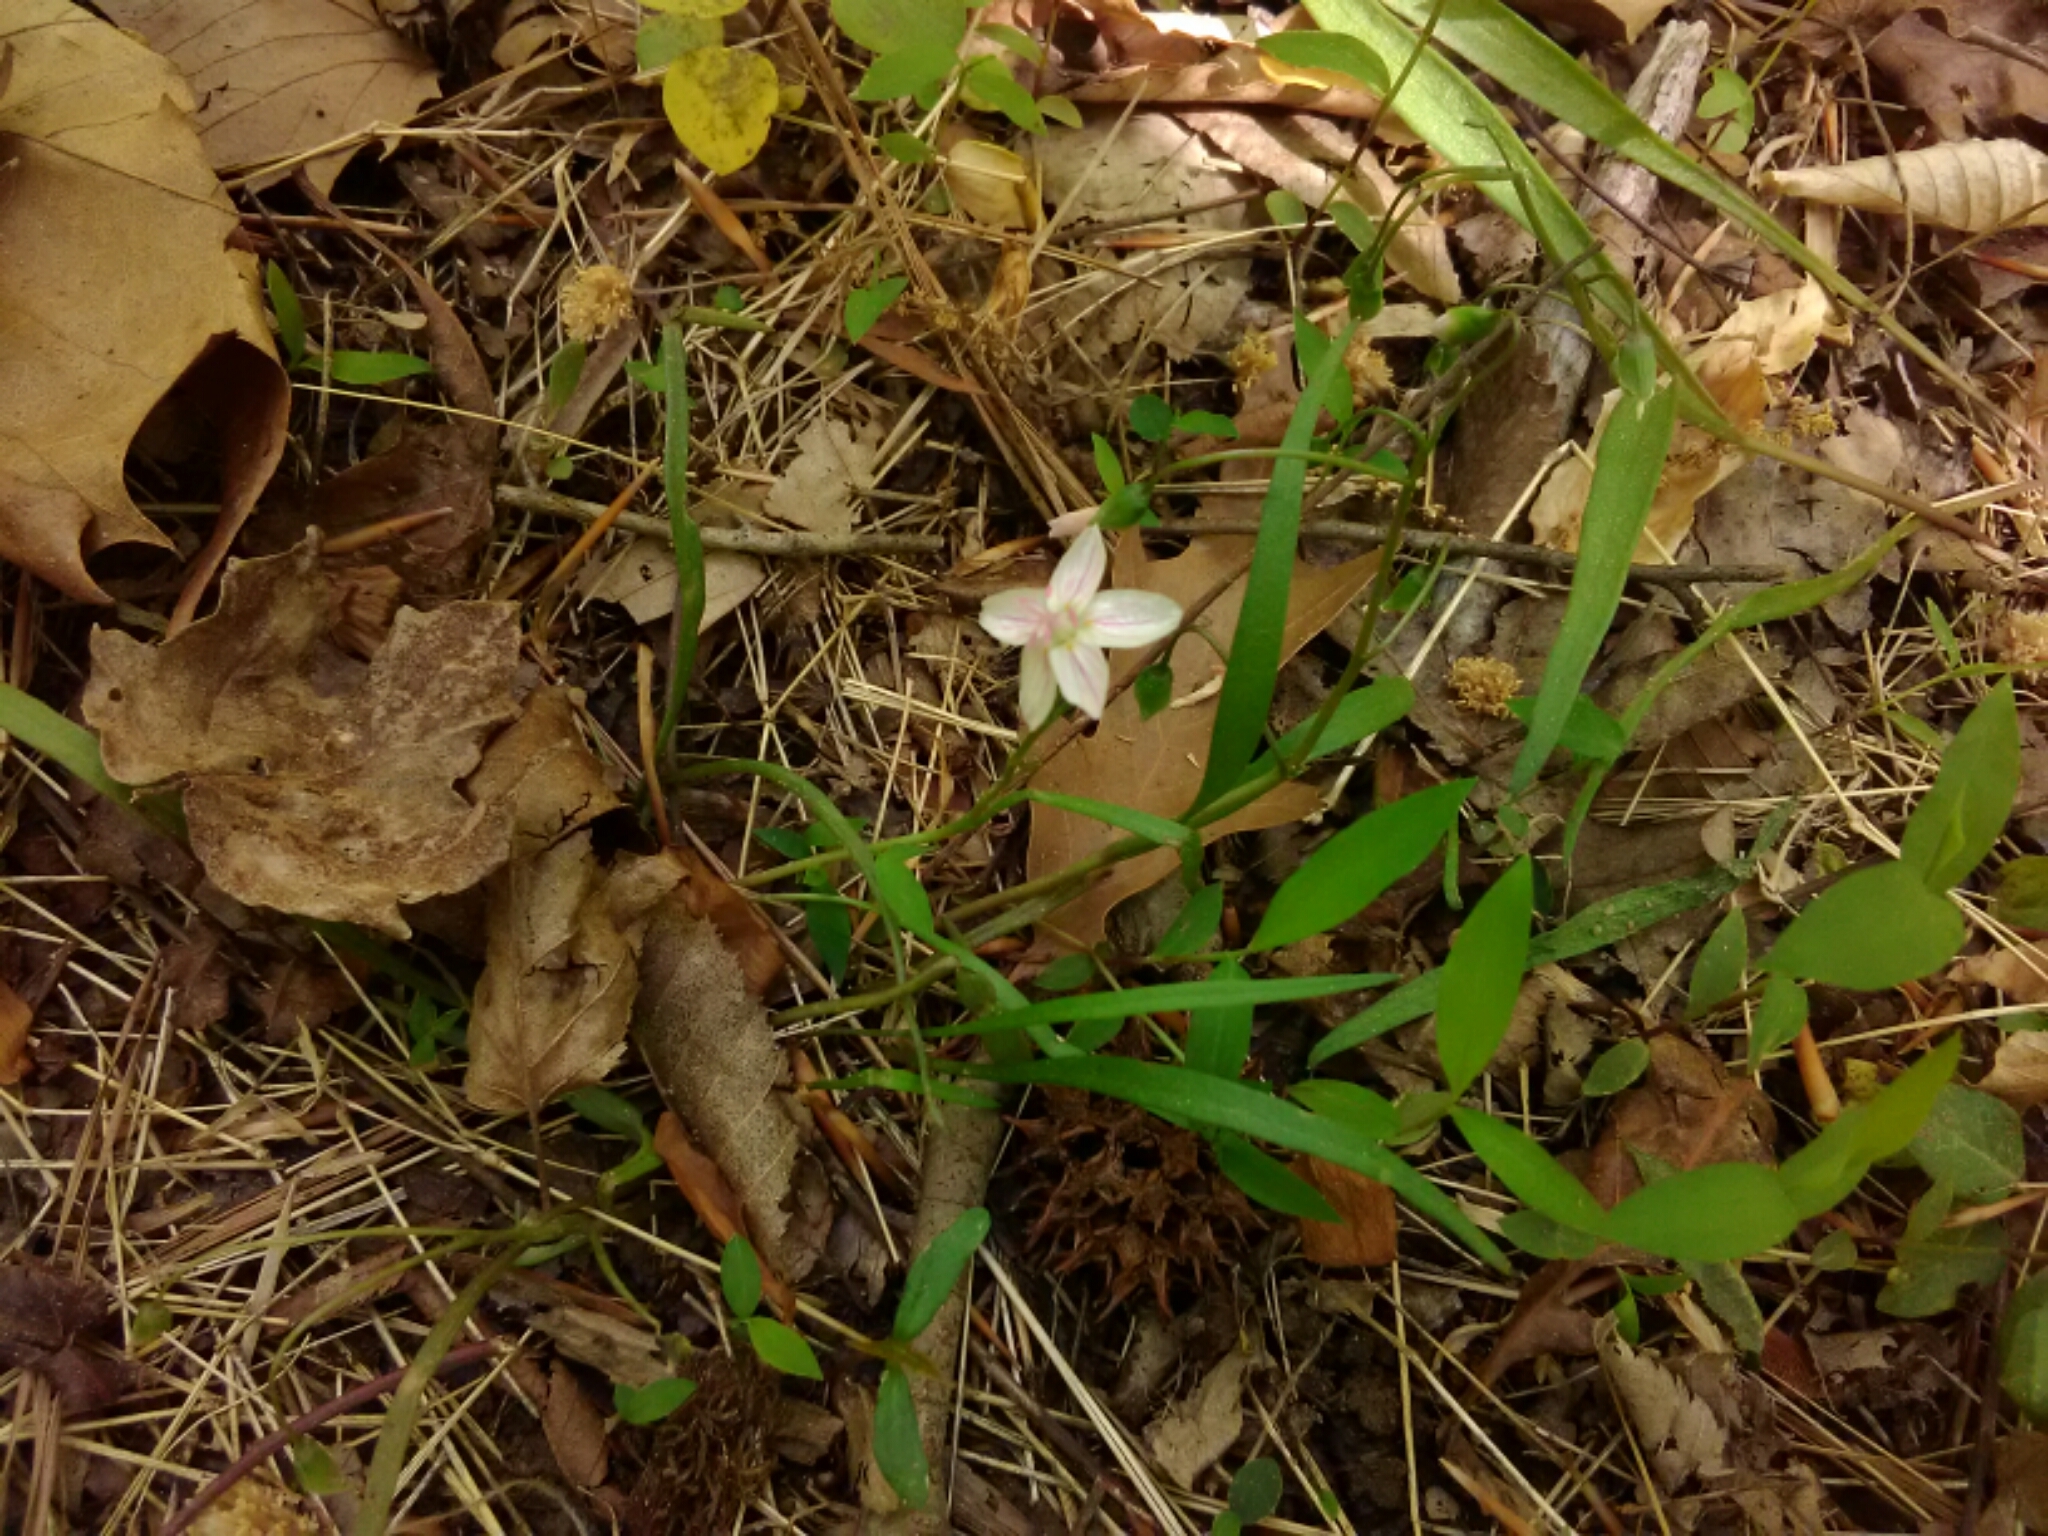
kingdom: Plantae
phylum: Tracheophyta
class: Magnoliopsida
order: Caryophyllales
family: Montiaceae
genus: Claytonia
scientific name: Claytonia virginica
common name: Virginia springbeauty
